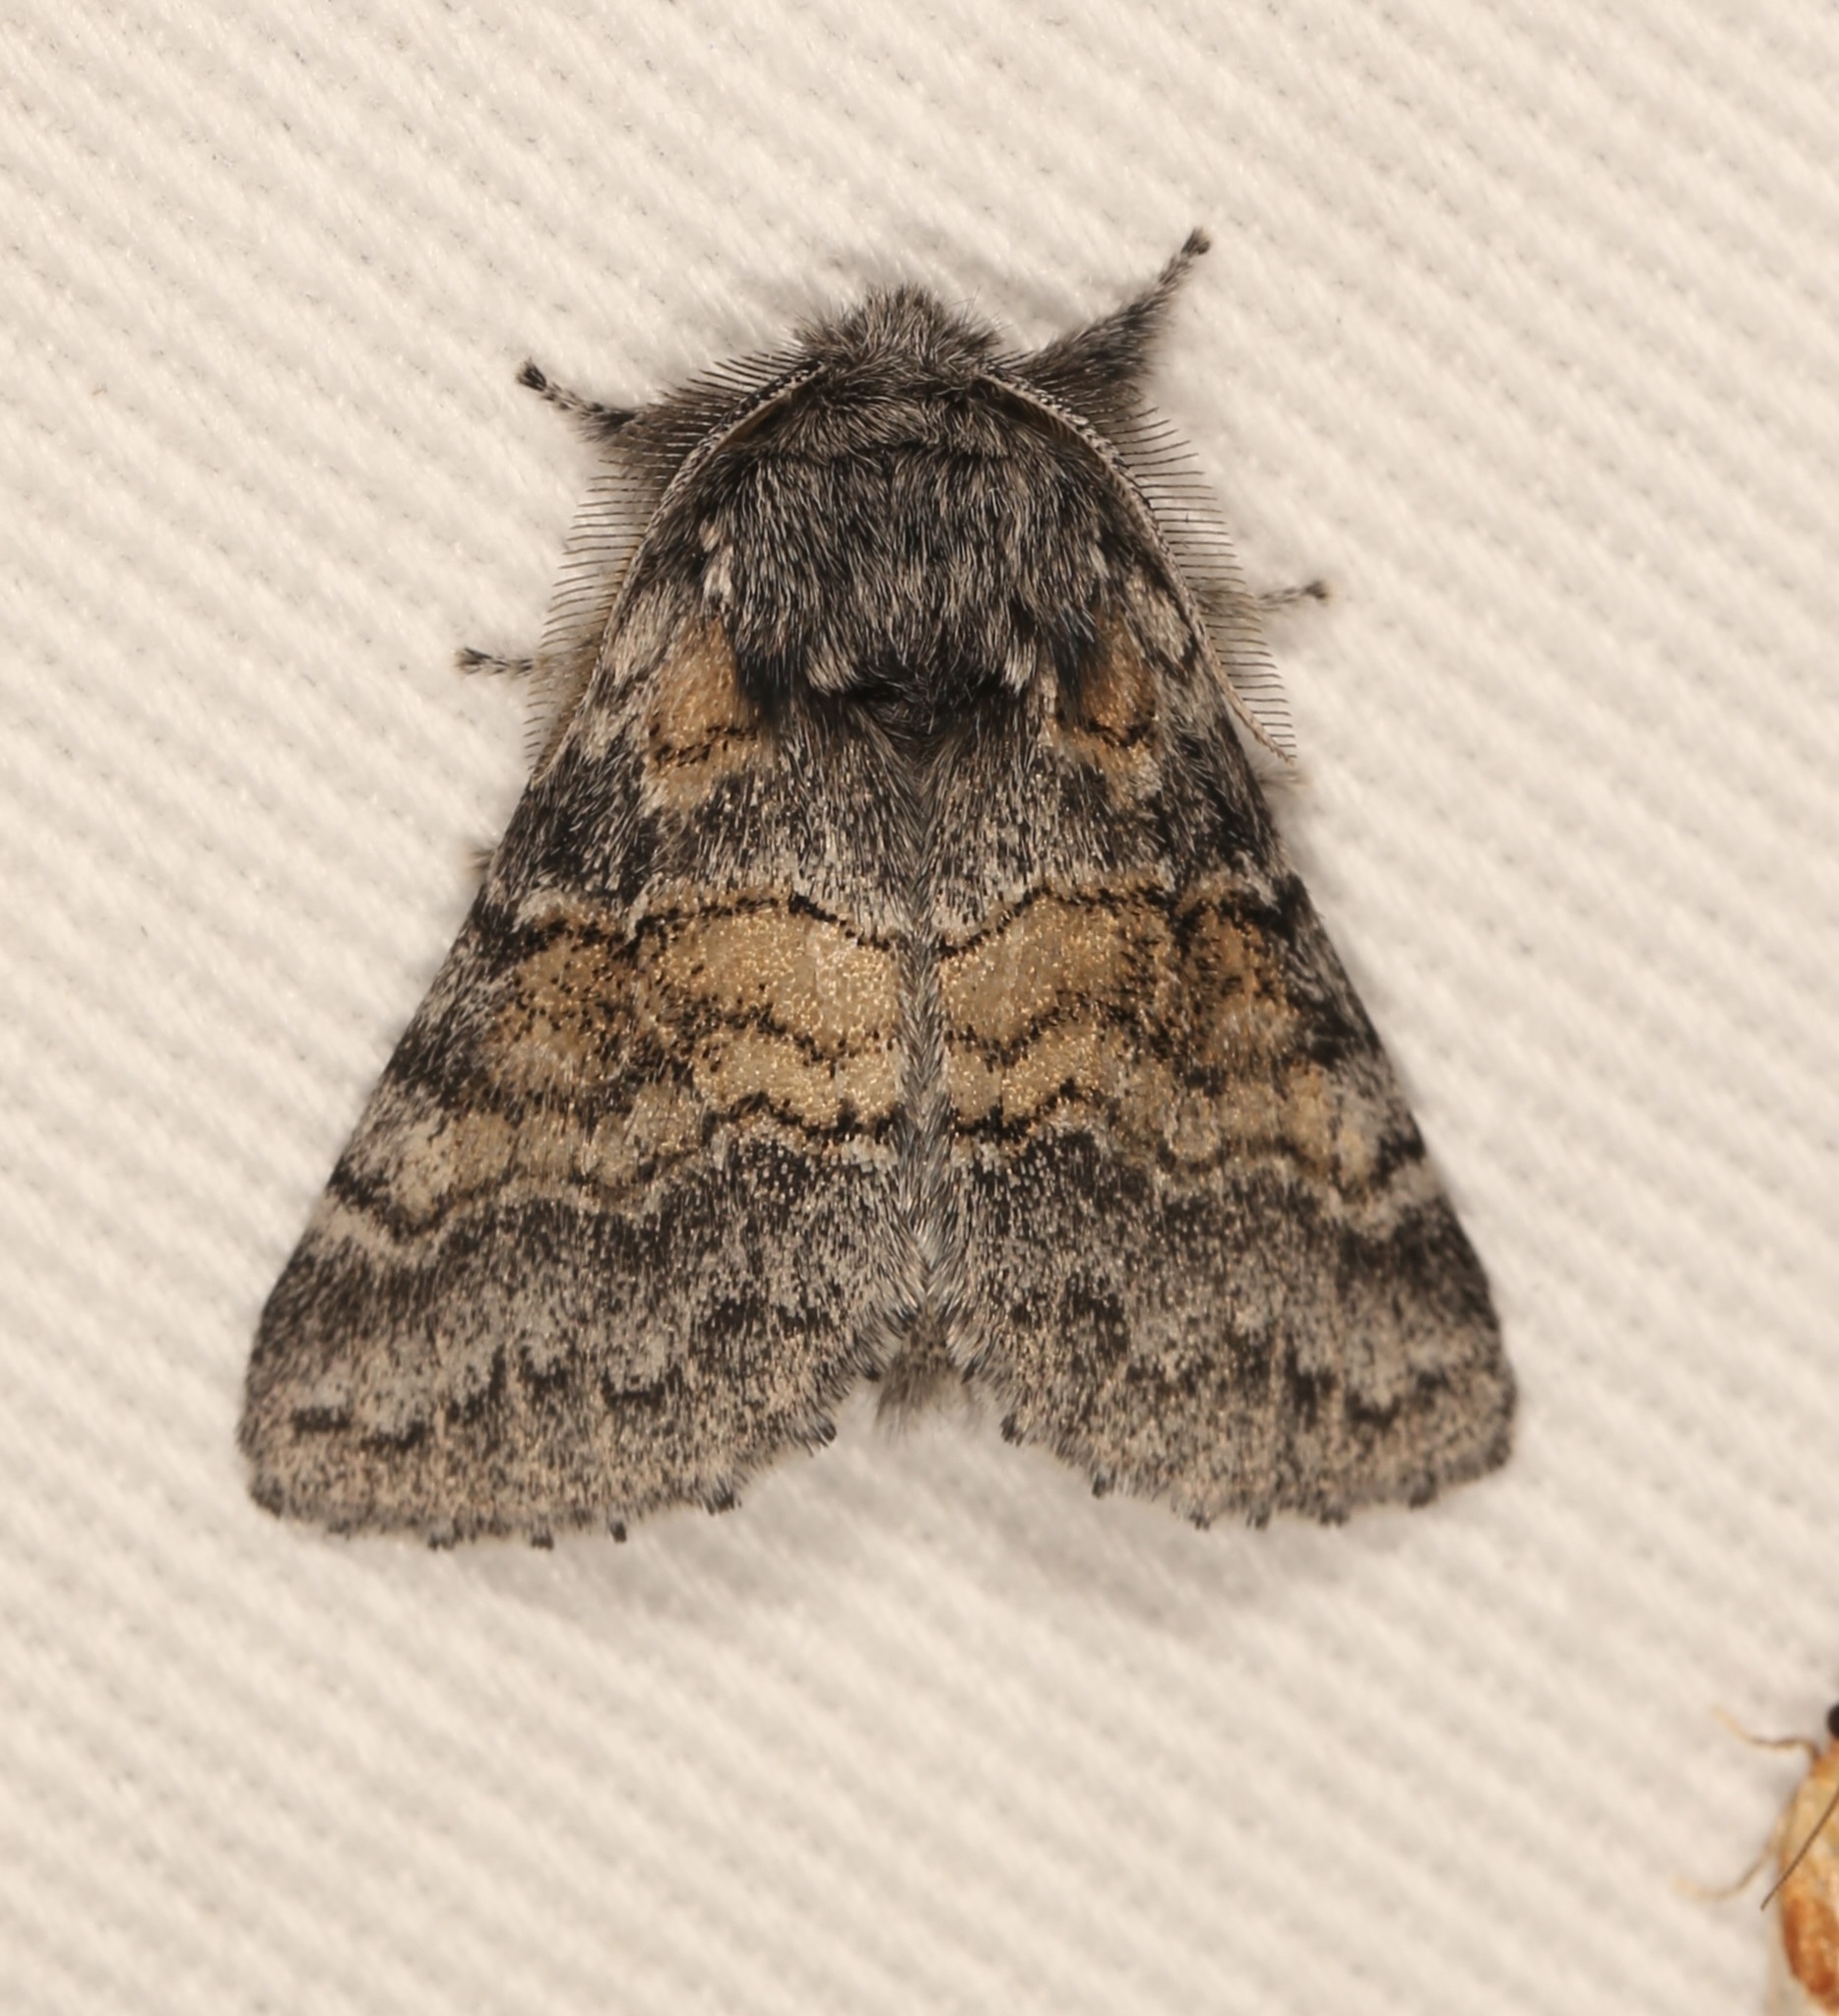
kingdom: Animalia
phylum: Arthropoda
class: Insecta
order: Lepidoptera
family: Notodontidae
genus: Gluphisia
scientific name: Gluphisia septentrionis
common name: Common gluphisia
